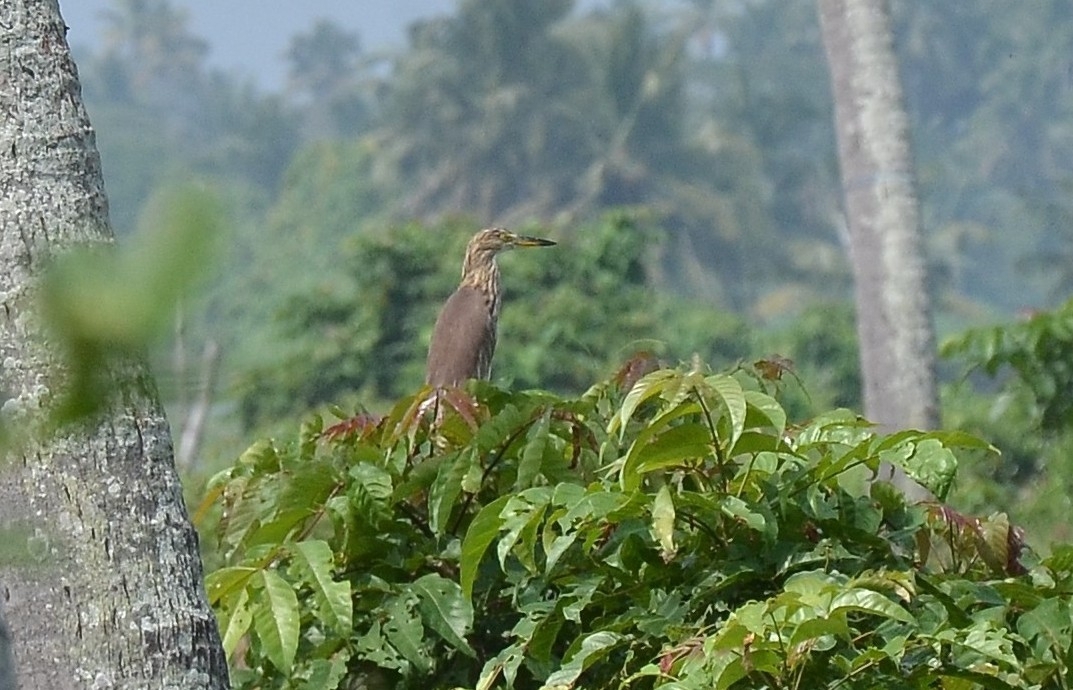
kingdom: Animalia
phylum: Chordata
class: Aves
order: Pelecaniformes
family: Ardeidae
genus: Ardeola
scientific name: Ardeola grayii
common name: Indian pond heron
